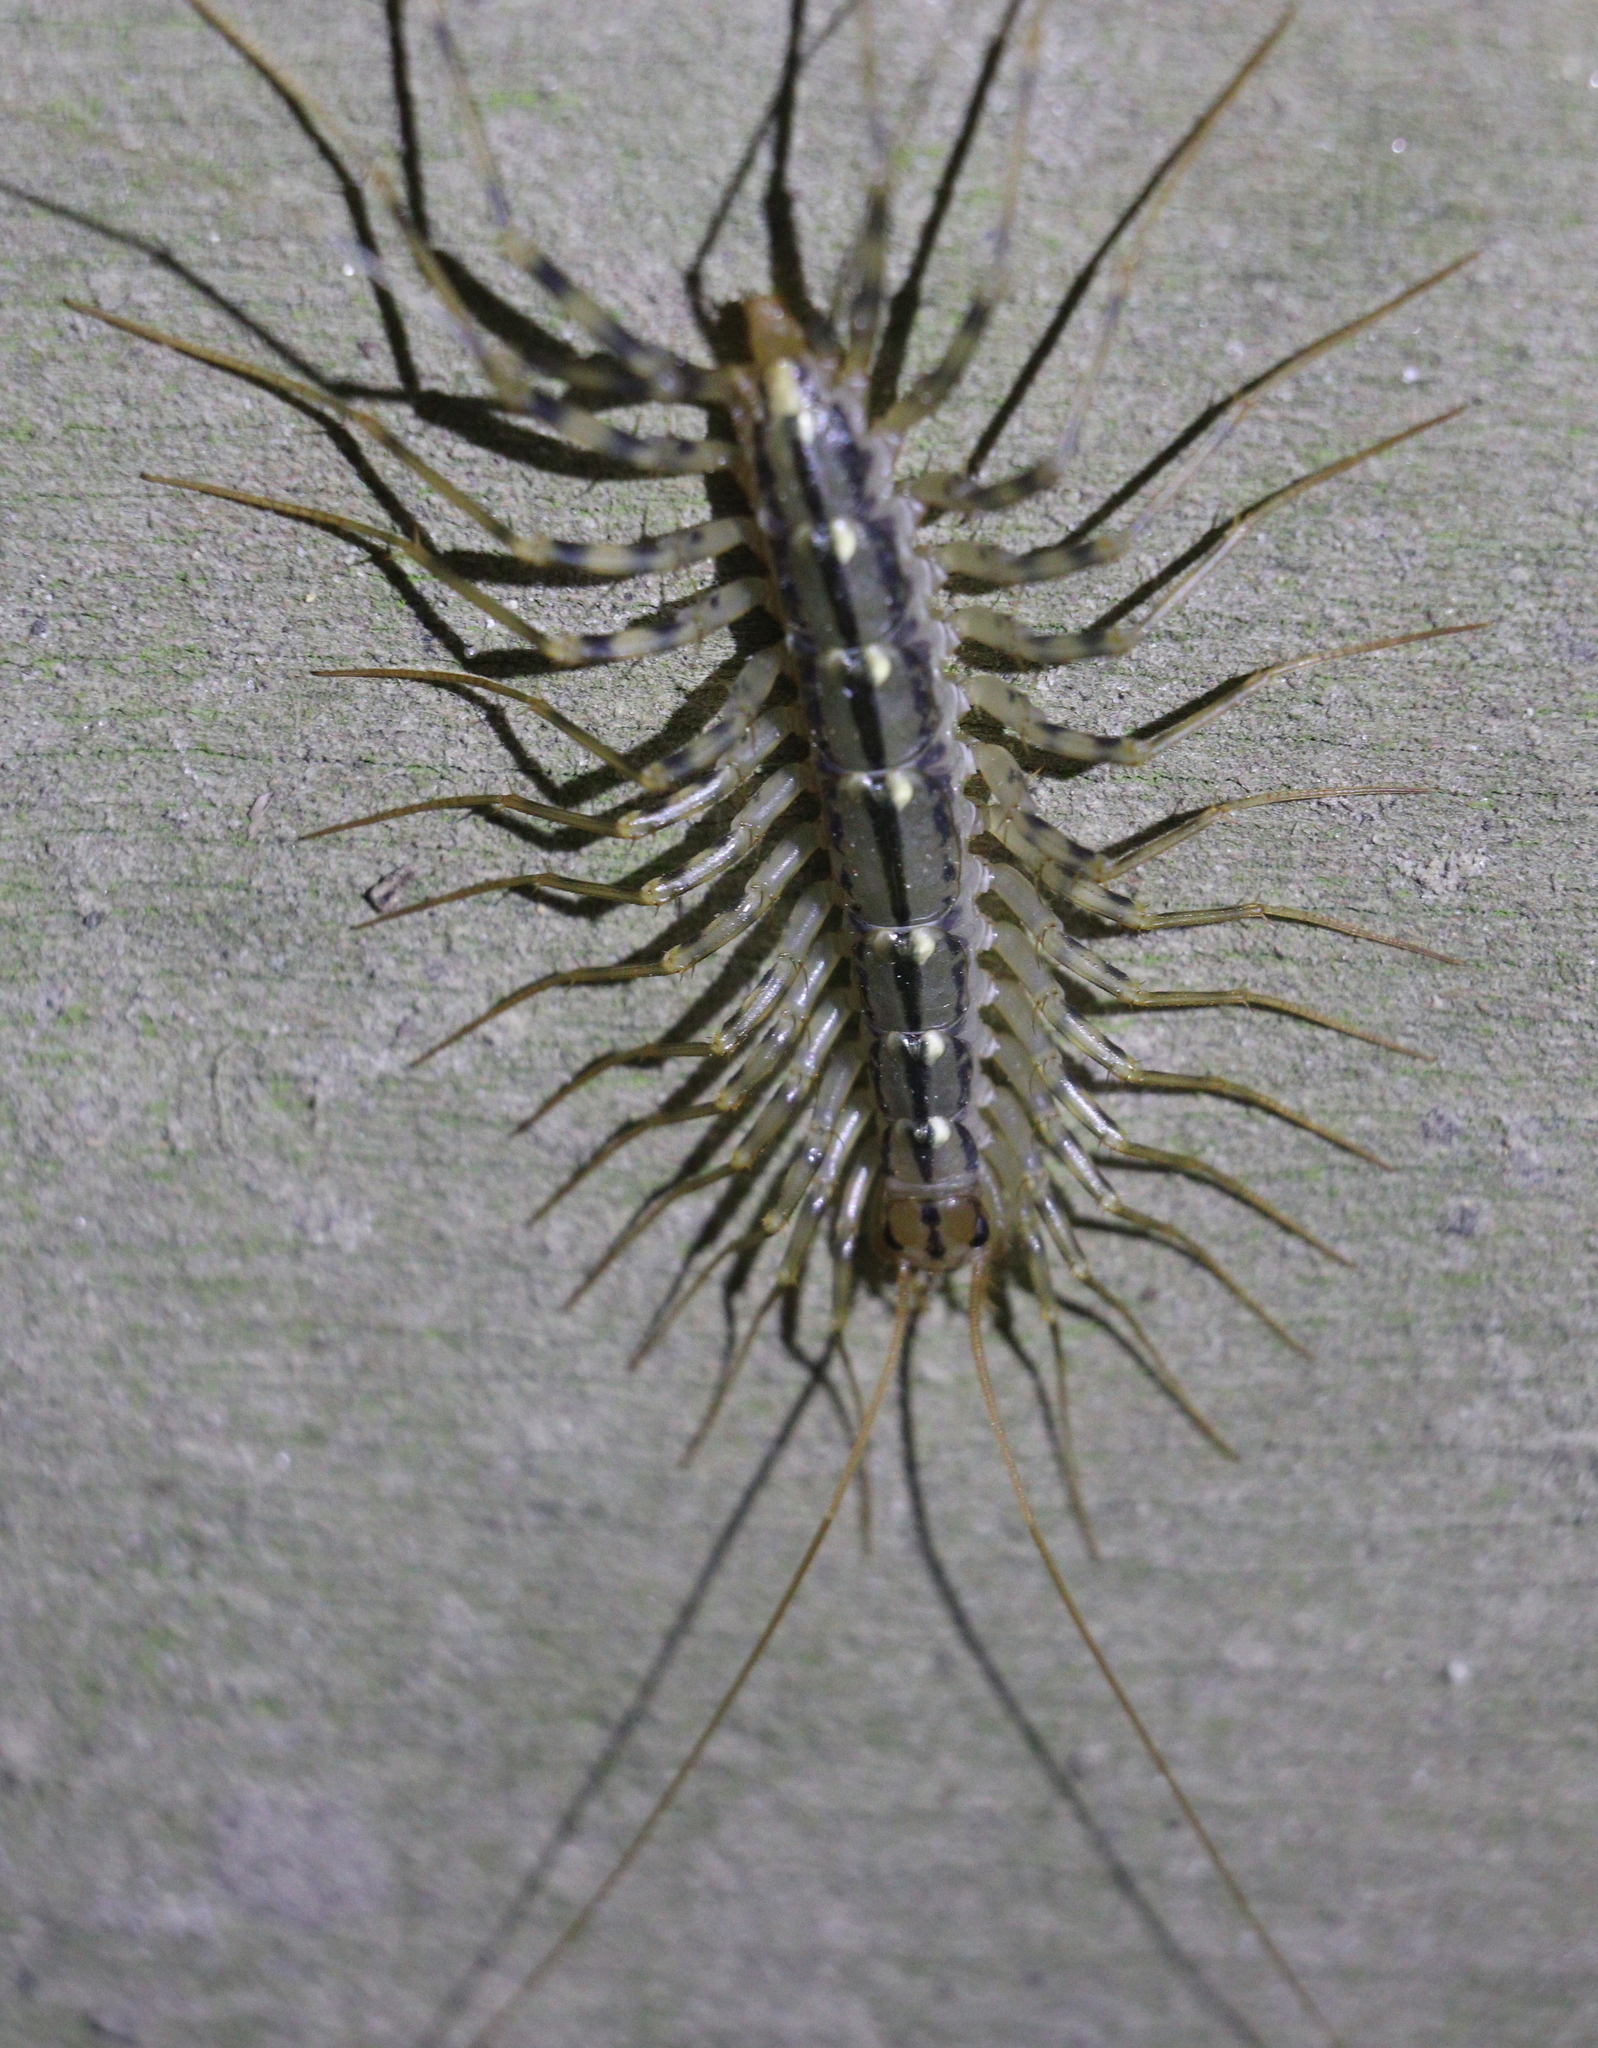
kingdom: Animalia
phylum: Arthropoda
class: Chilopoda
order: Scutigeromorpha
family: Scutigeridae
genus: Scutigera
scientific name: Scutigera coleoptrata
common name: House centipede
